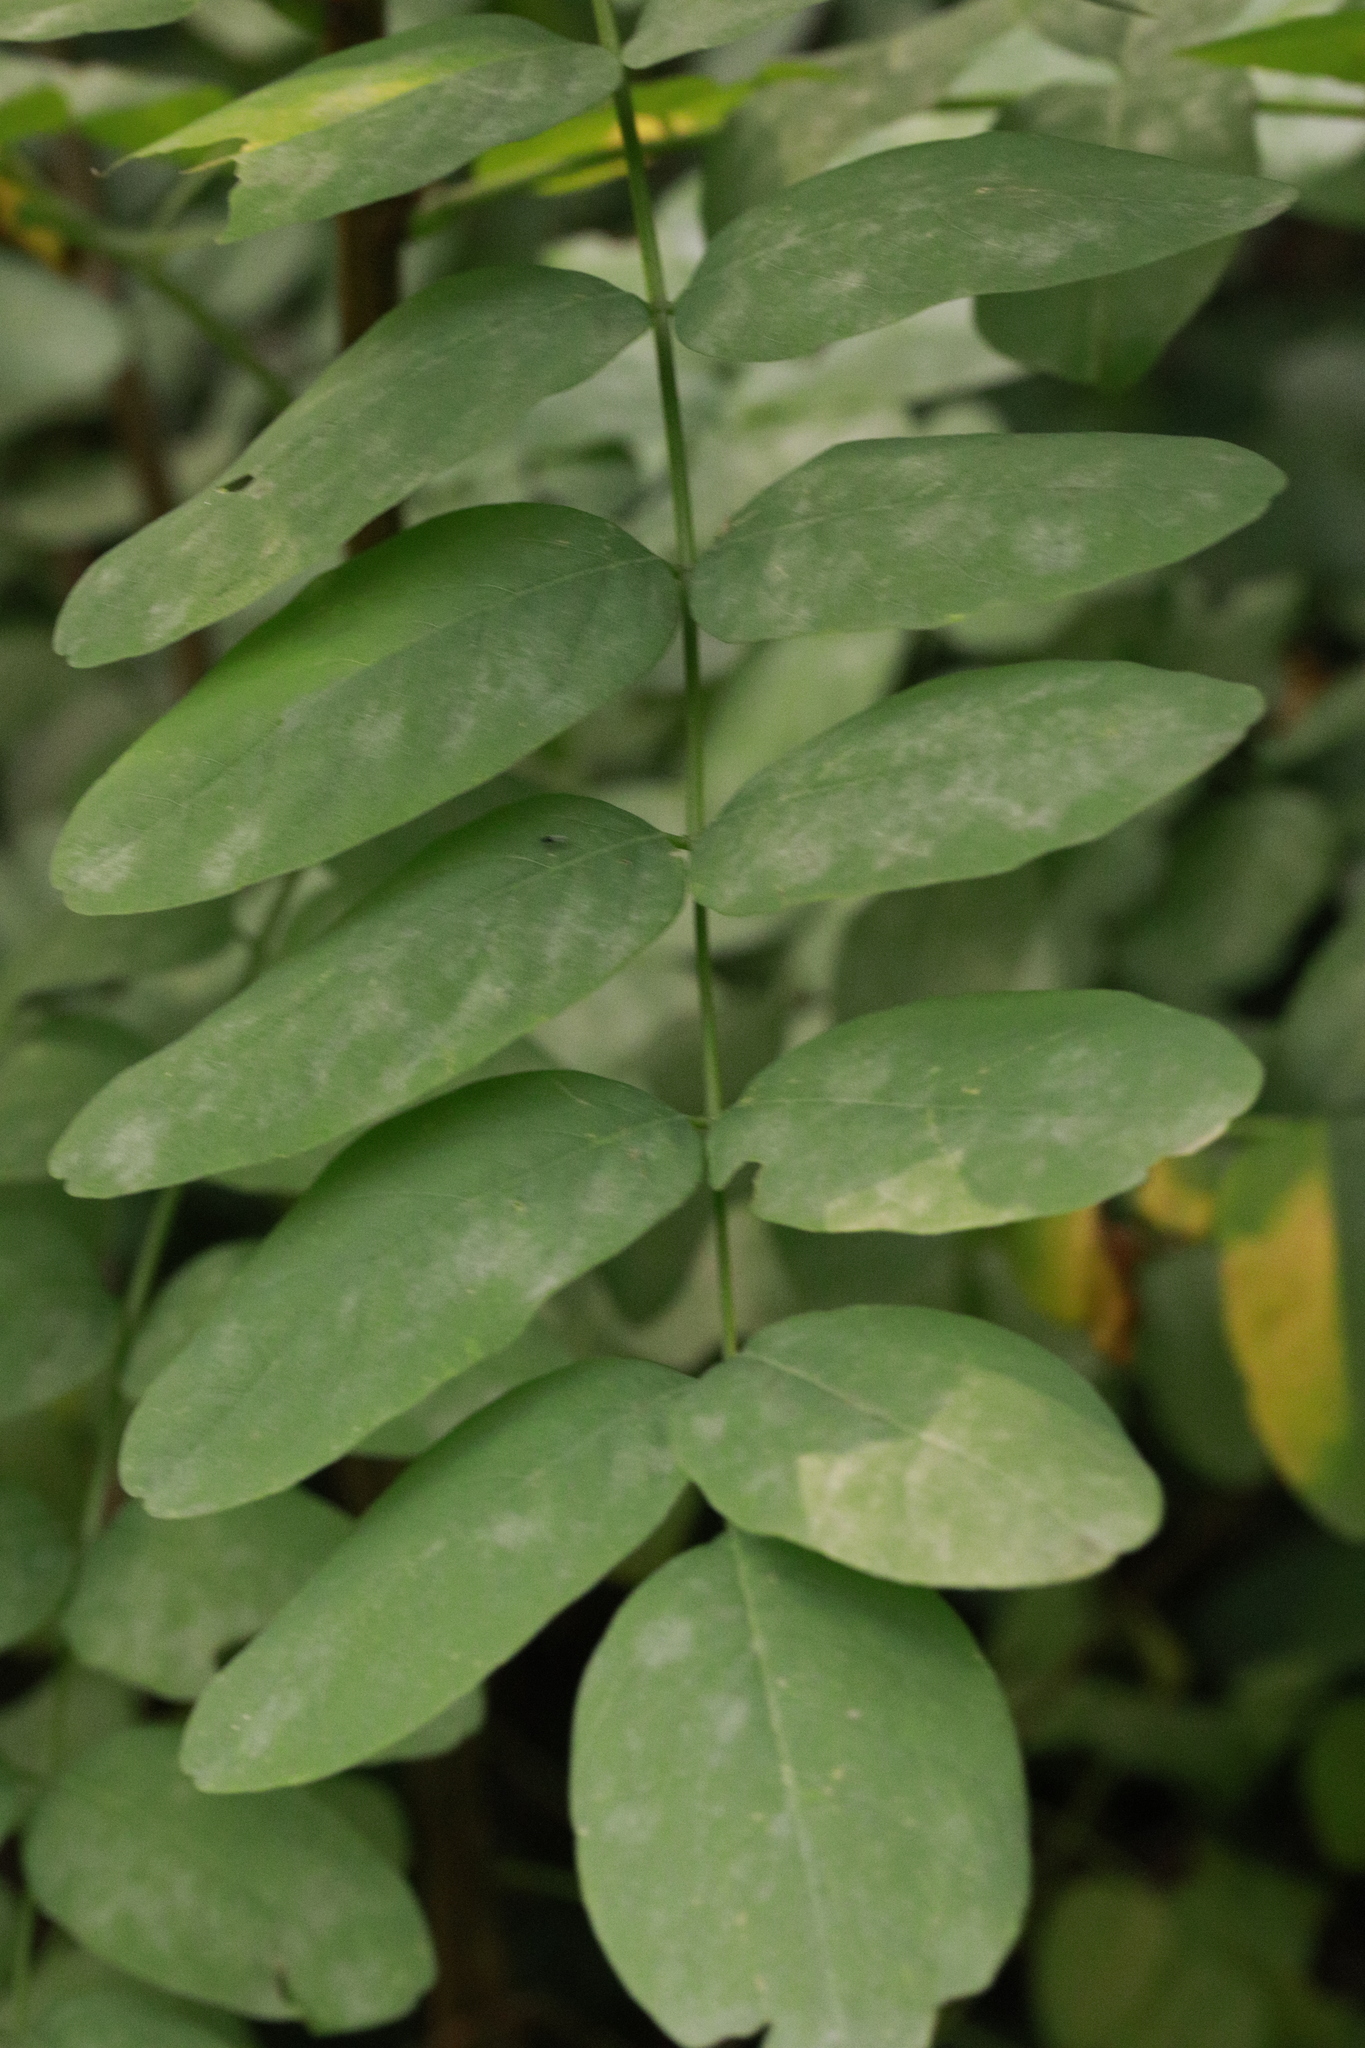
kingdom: Fungi
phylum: Ascomycota
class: Leotiomycetes
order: Helotiales
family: Erysiphaceae
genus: Erysiphe
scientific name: Erysiphe palczewskii
